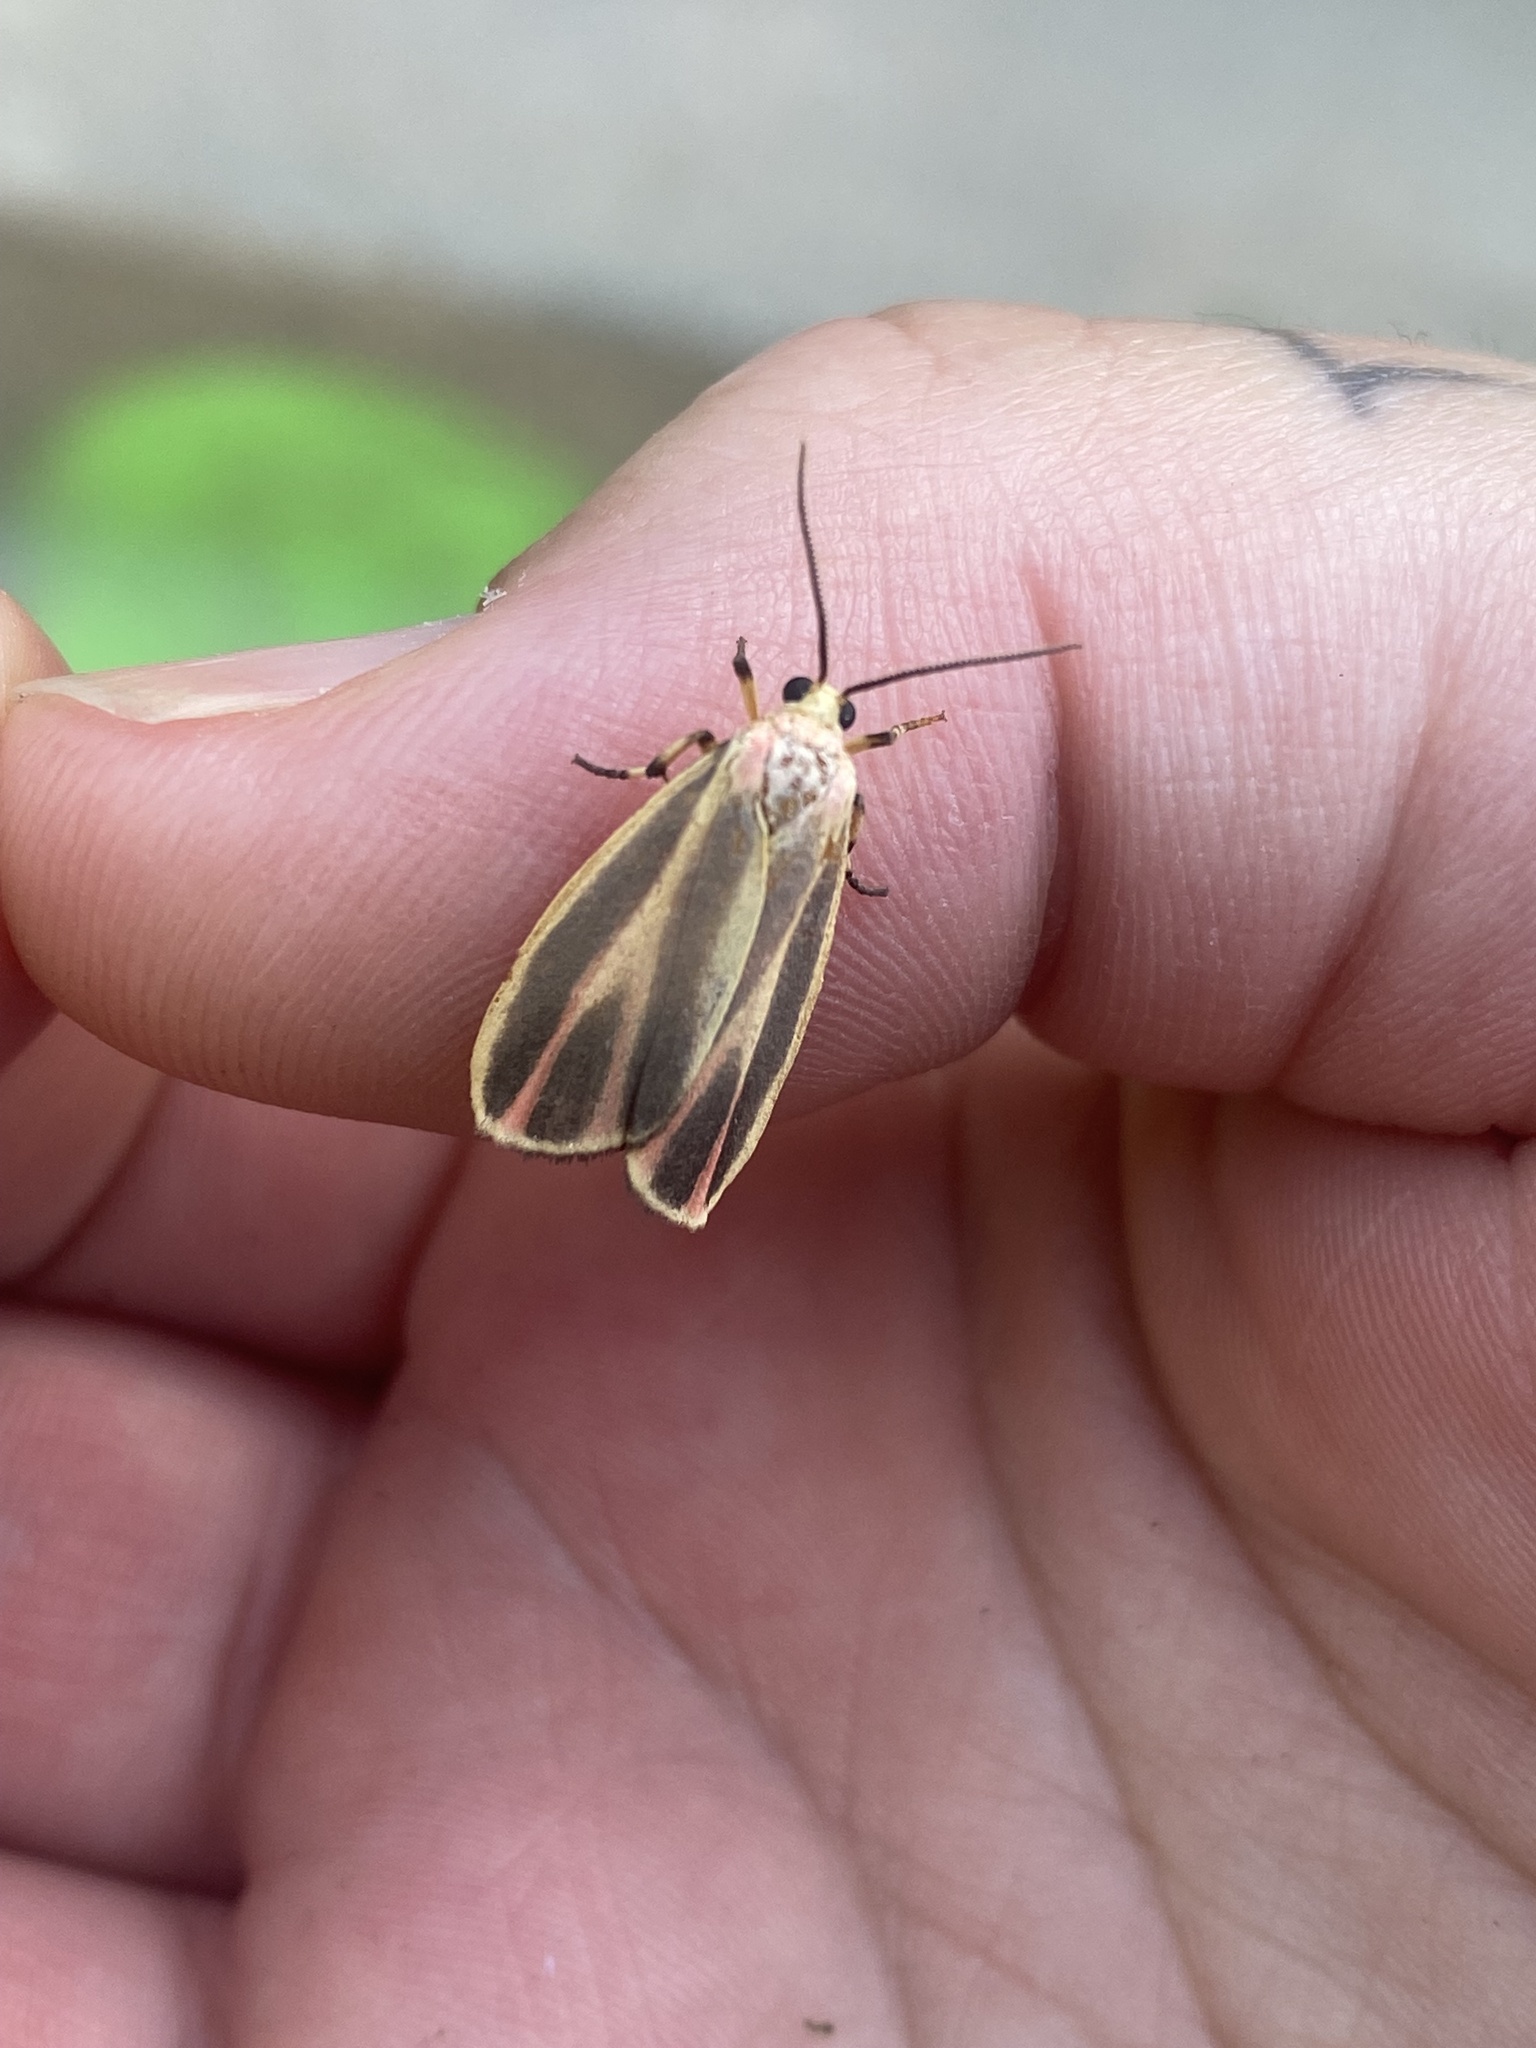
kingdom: Animalia
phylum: Arthropoda
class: Insecta
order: Lepidoptera
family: Erebidae
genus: Hypoprepia
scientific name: Hypoprepia fucosa
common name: Painted lichen moth
